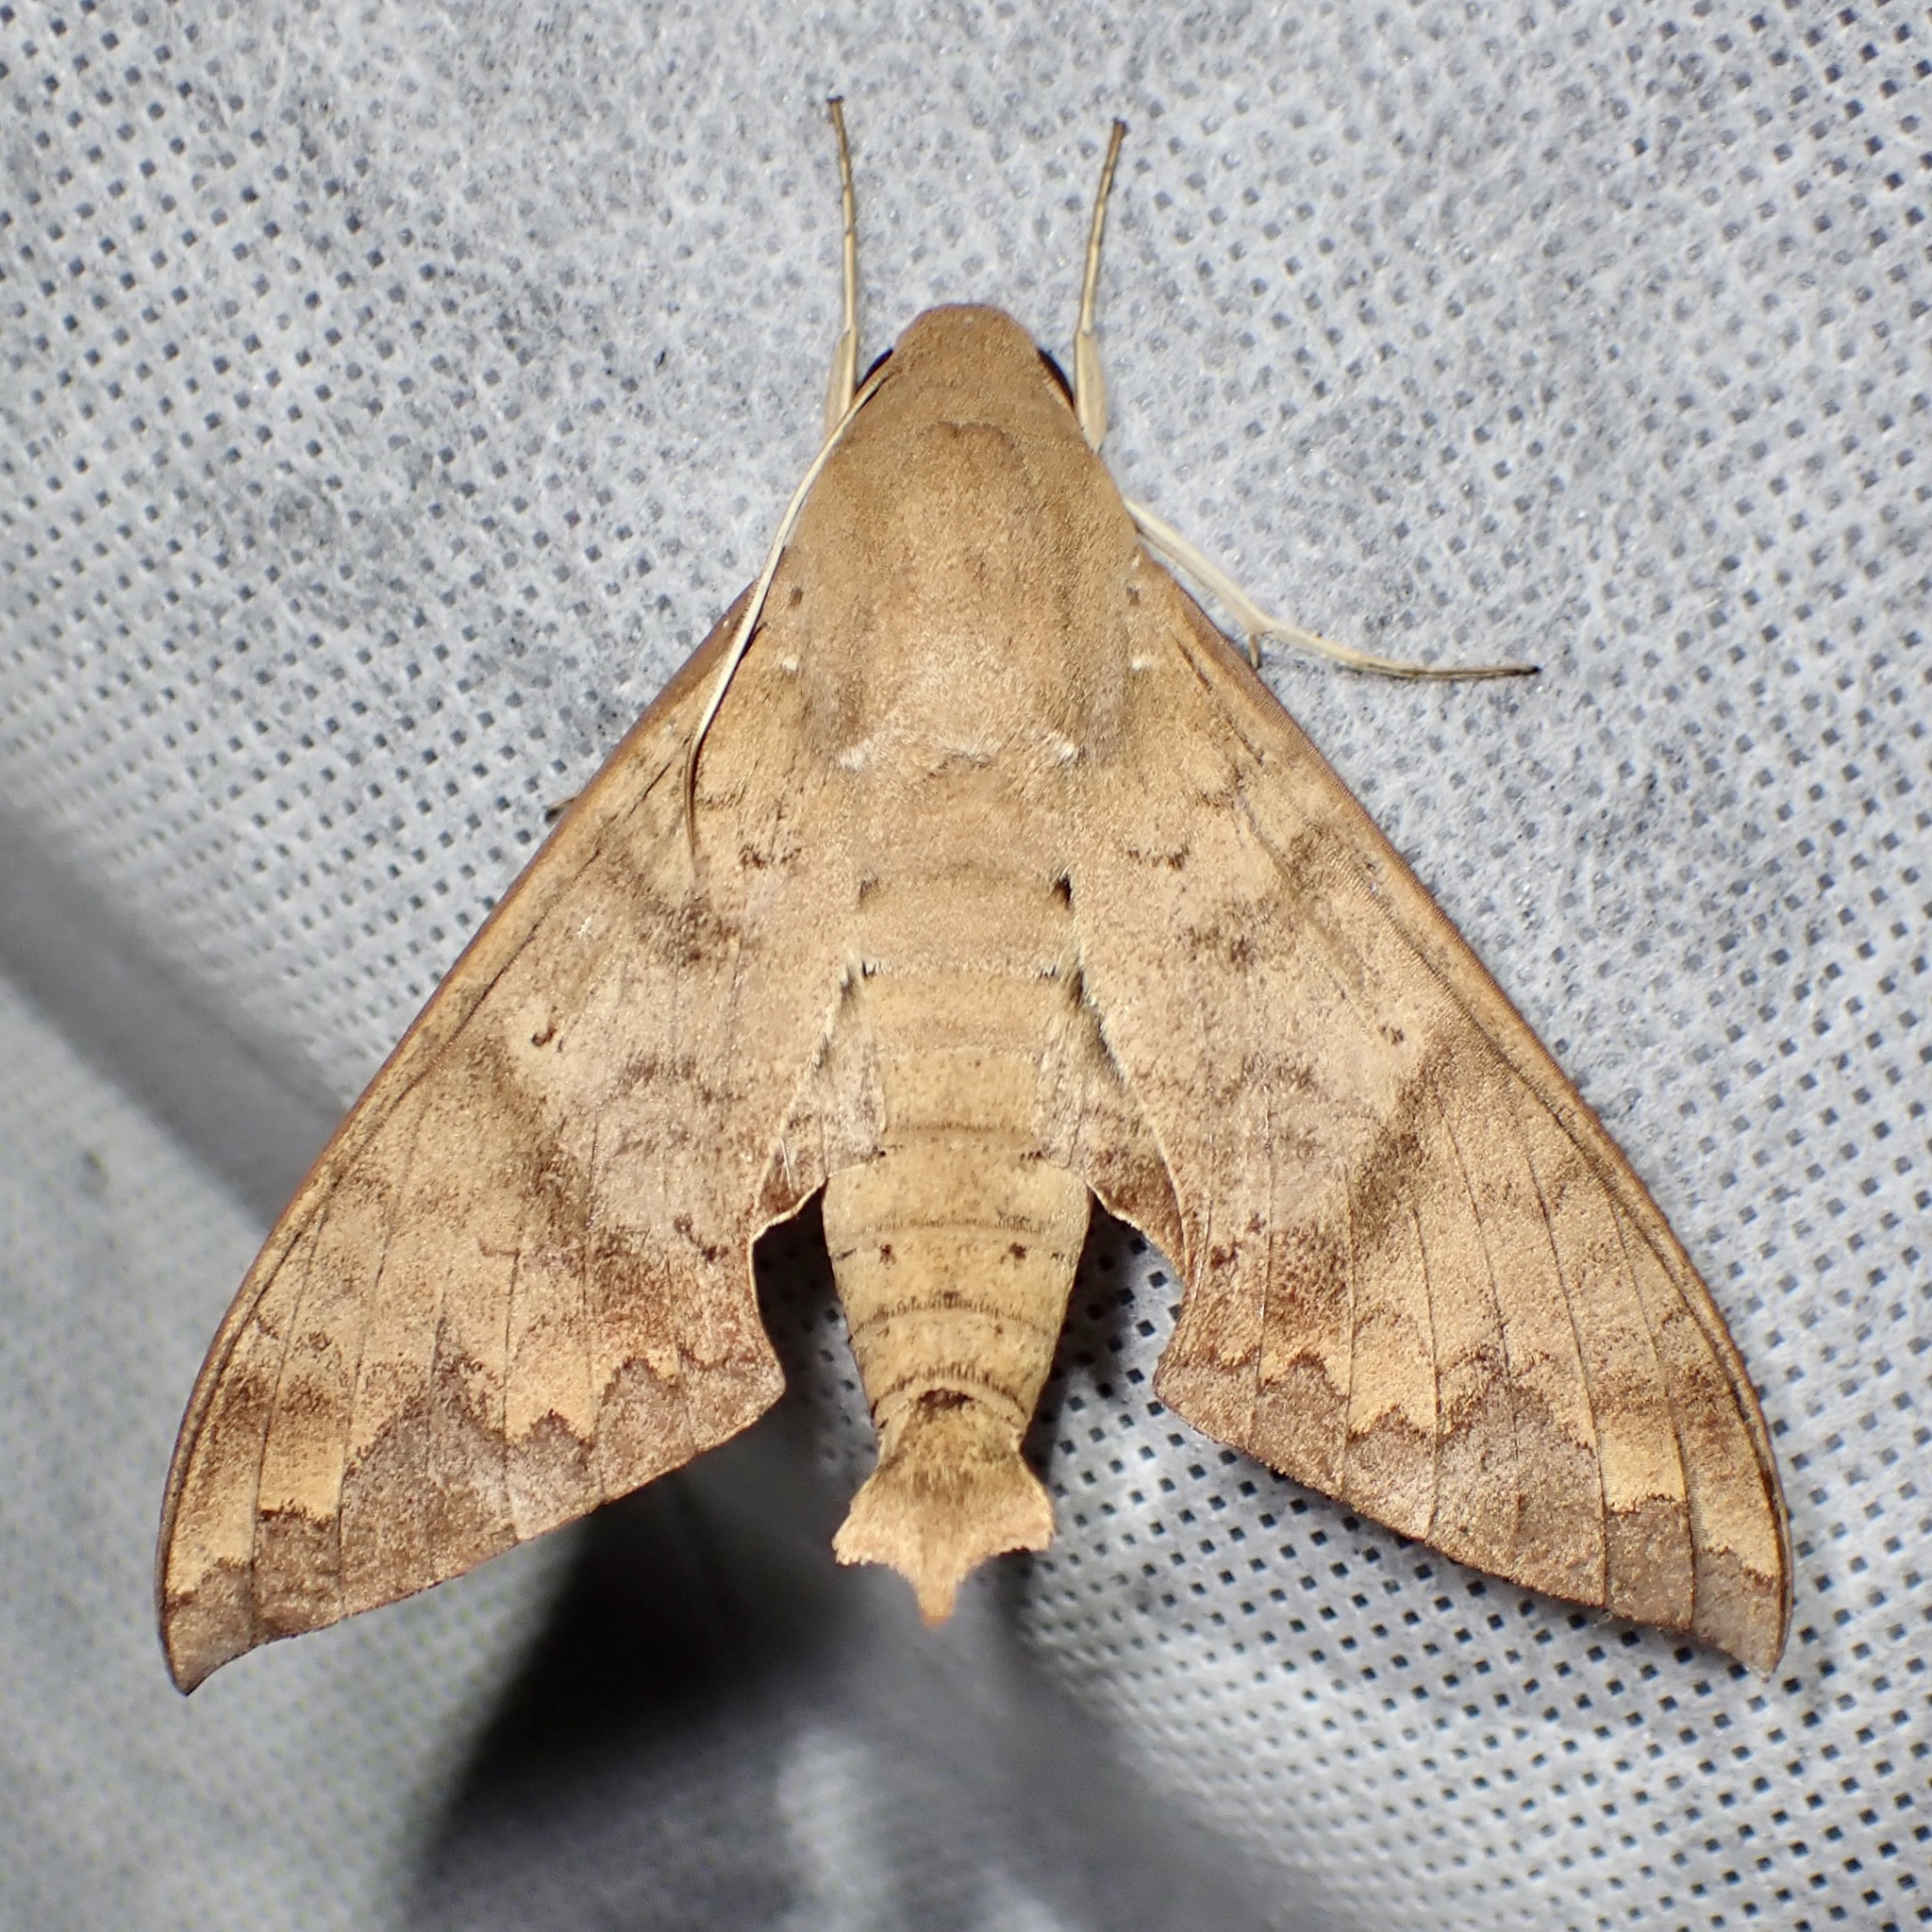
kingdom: Animalia
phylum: Arthropoda
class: Insecta
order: Lepidoptera
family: Sphingidae
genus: Pachylioides
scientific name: Pachylioides resumens
